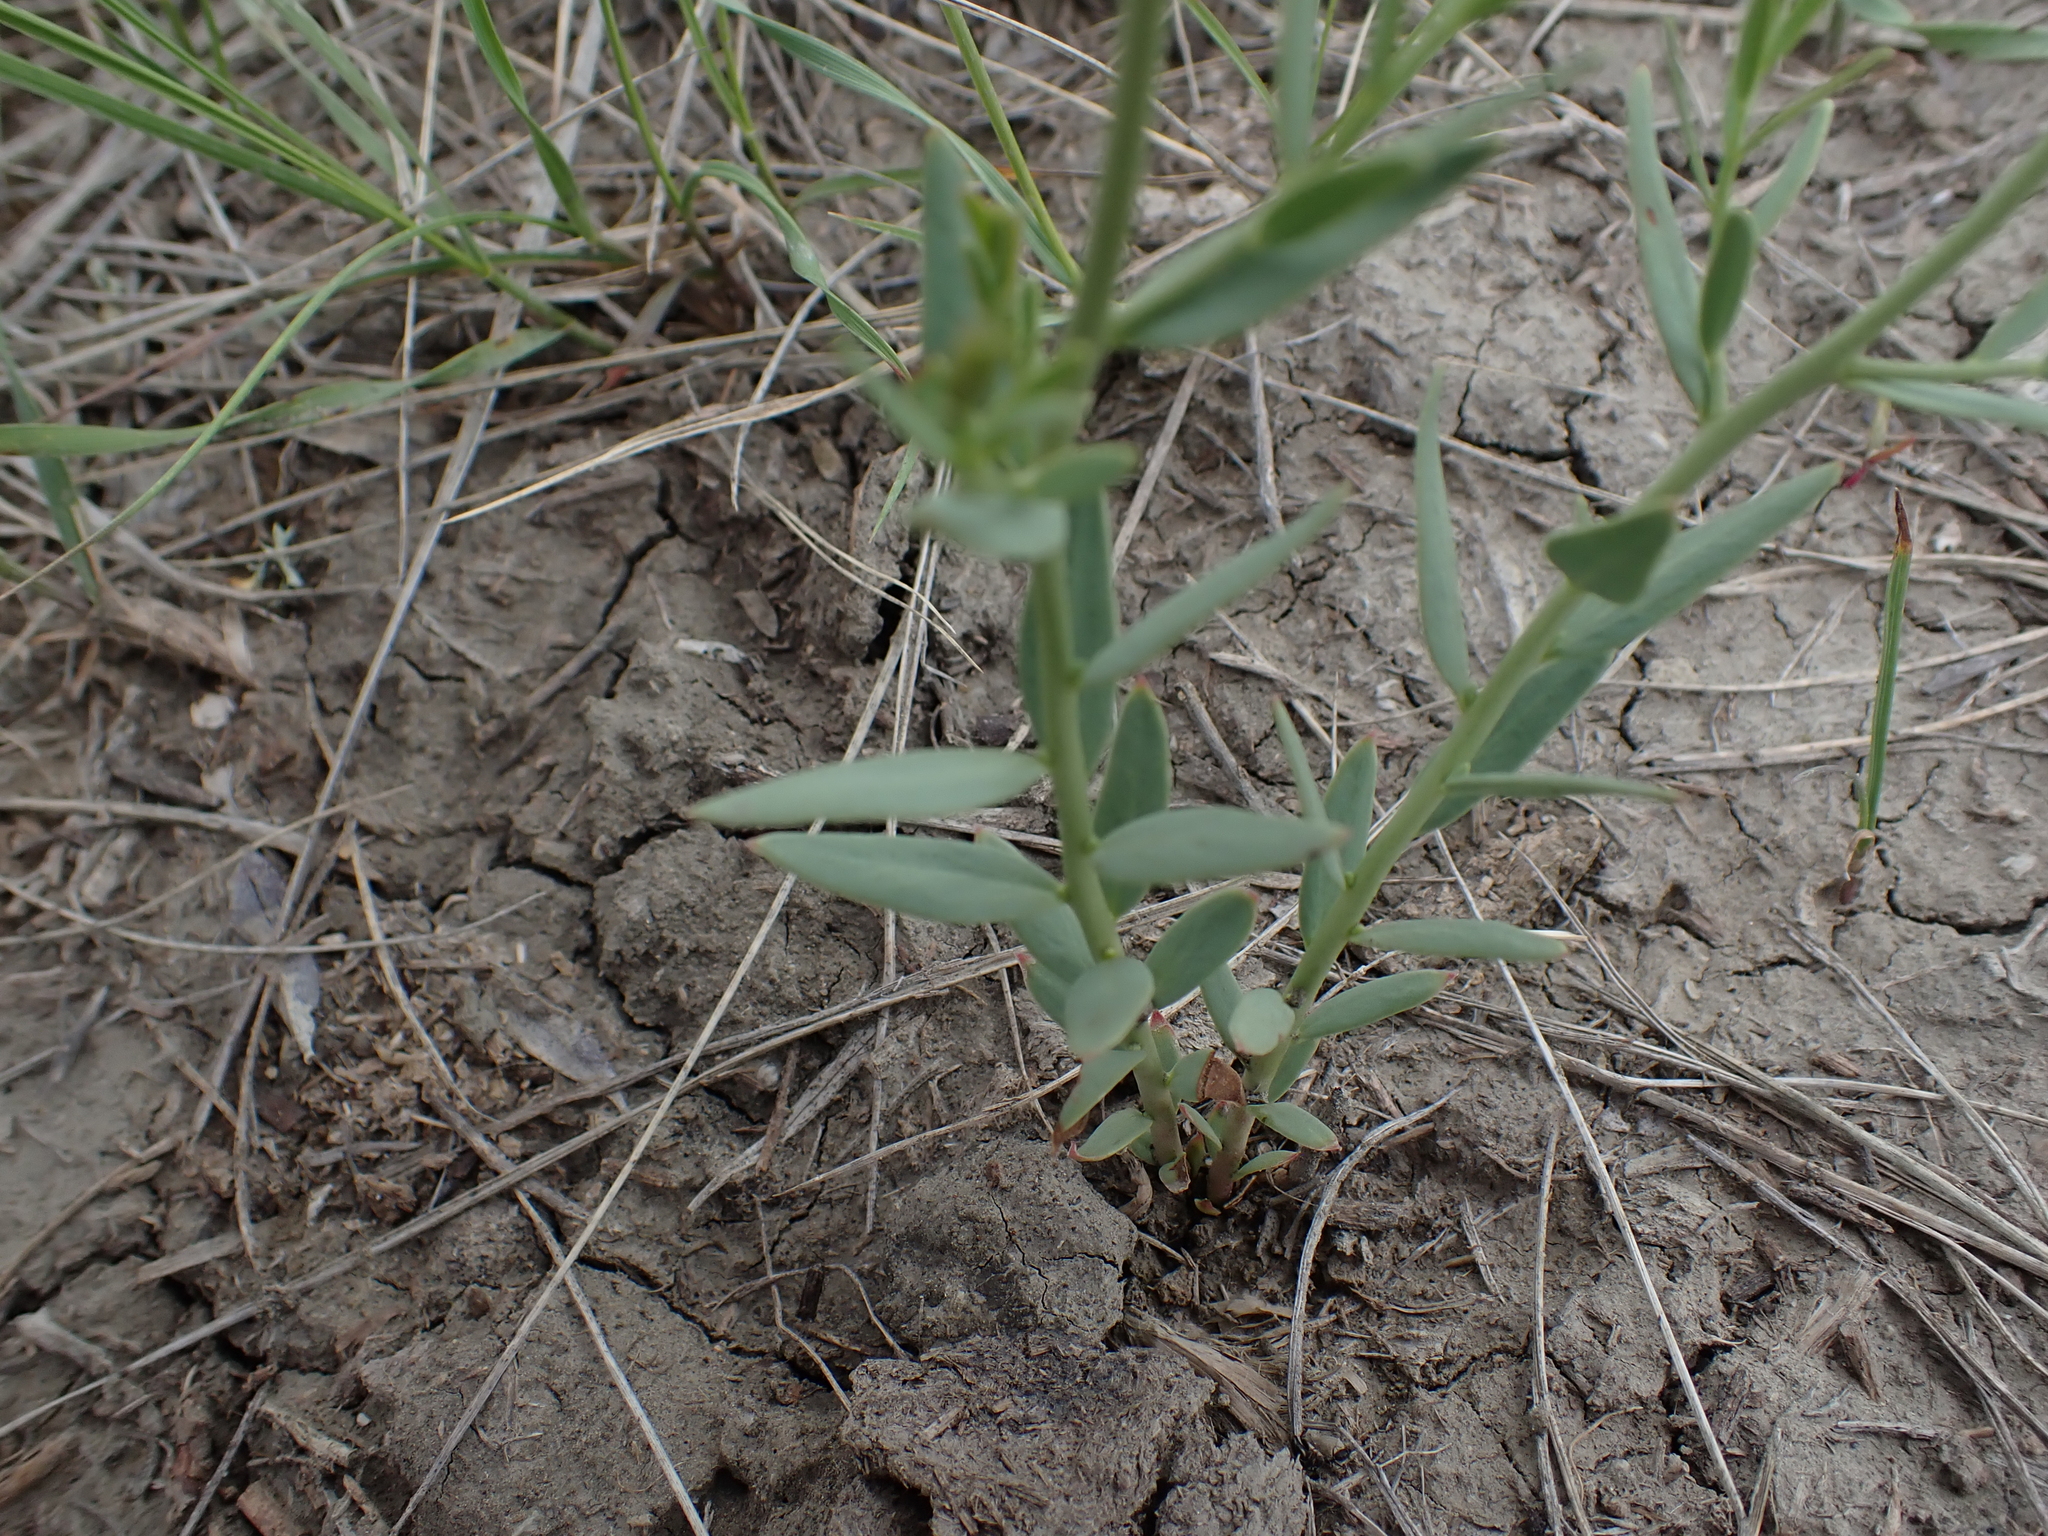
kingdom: Plantae
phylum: Tracheophyta
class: Magnoliopsida
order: Santalales
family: Comandraceae
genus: Comandra
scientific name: Comandra umbellata
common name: Bastard toadflax
